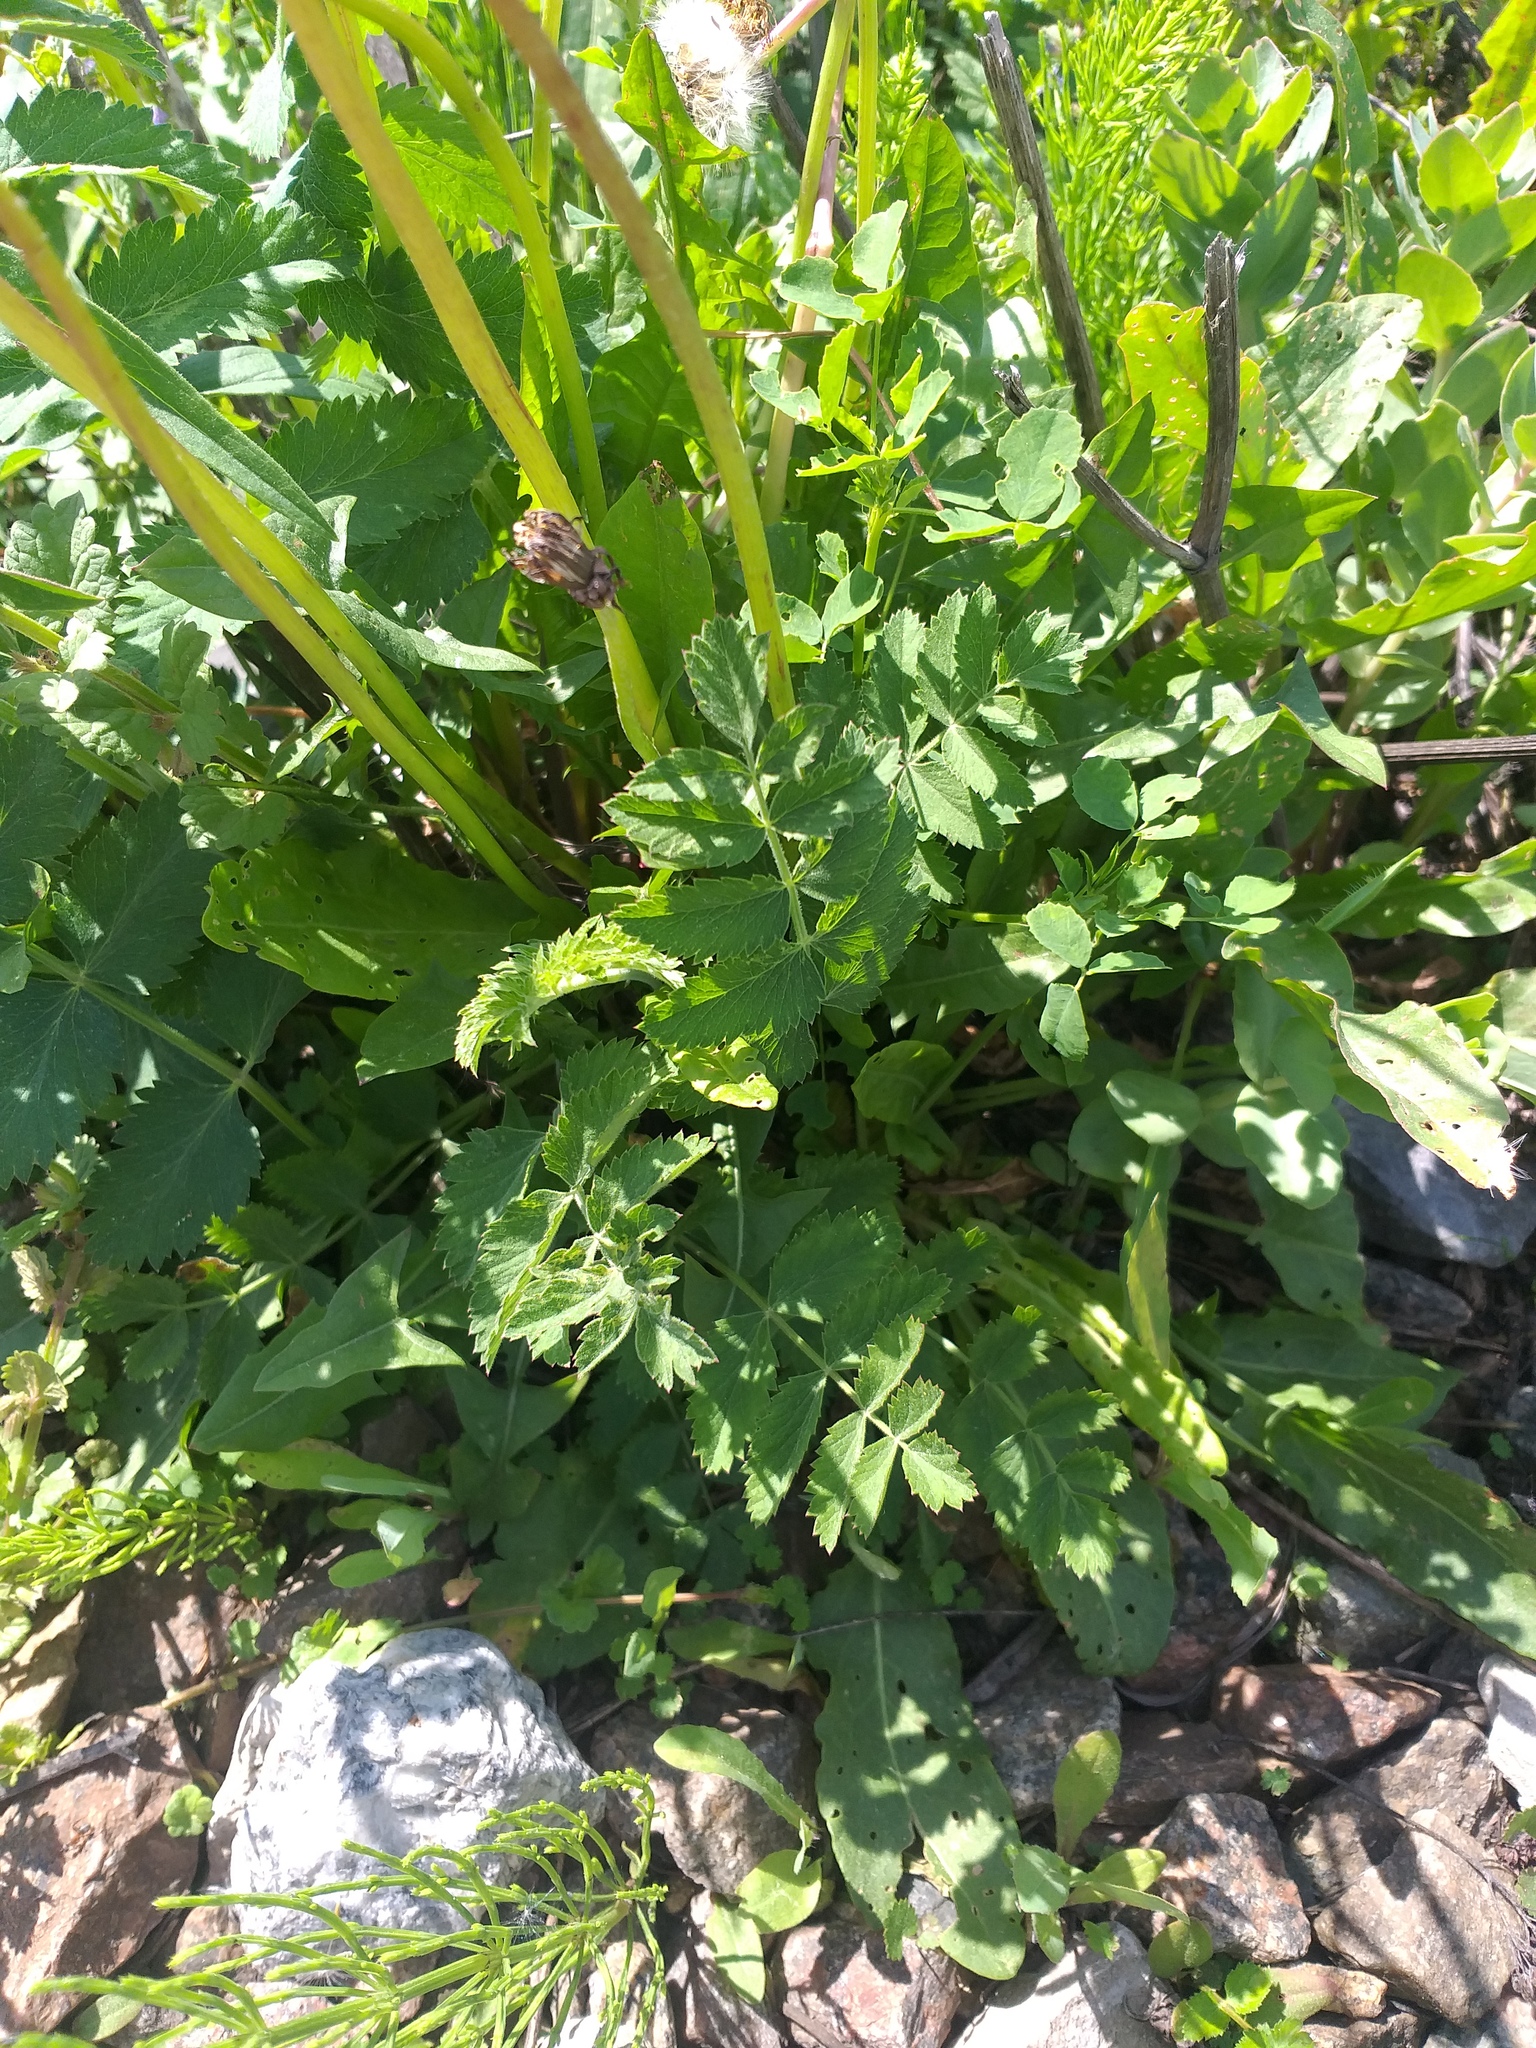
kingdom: Plantae
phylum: Tracheophyta
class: Magnoliopsida
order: Apiales
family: Apiaceae
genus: Pimpinella
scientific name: Pimpinella saxifraga
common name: Burnet-saxifrage
